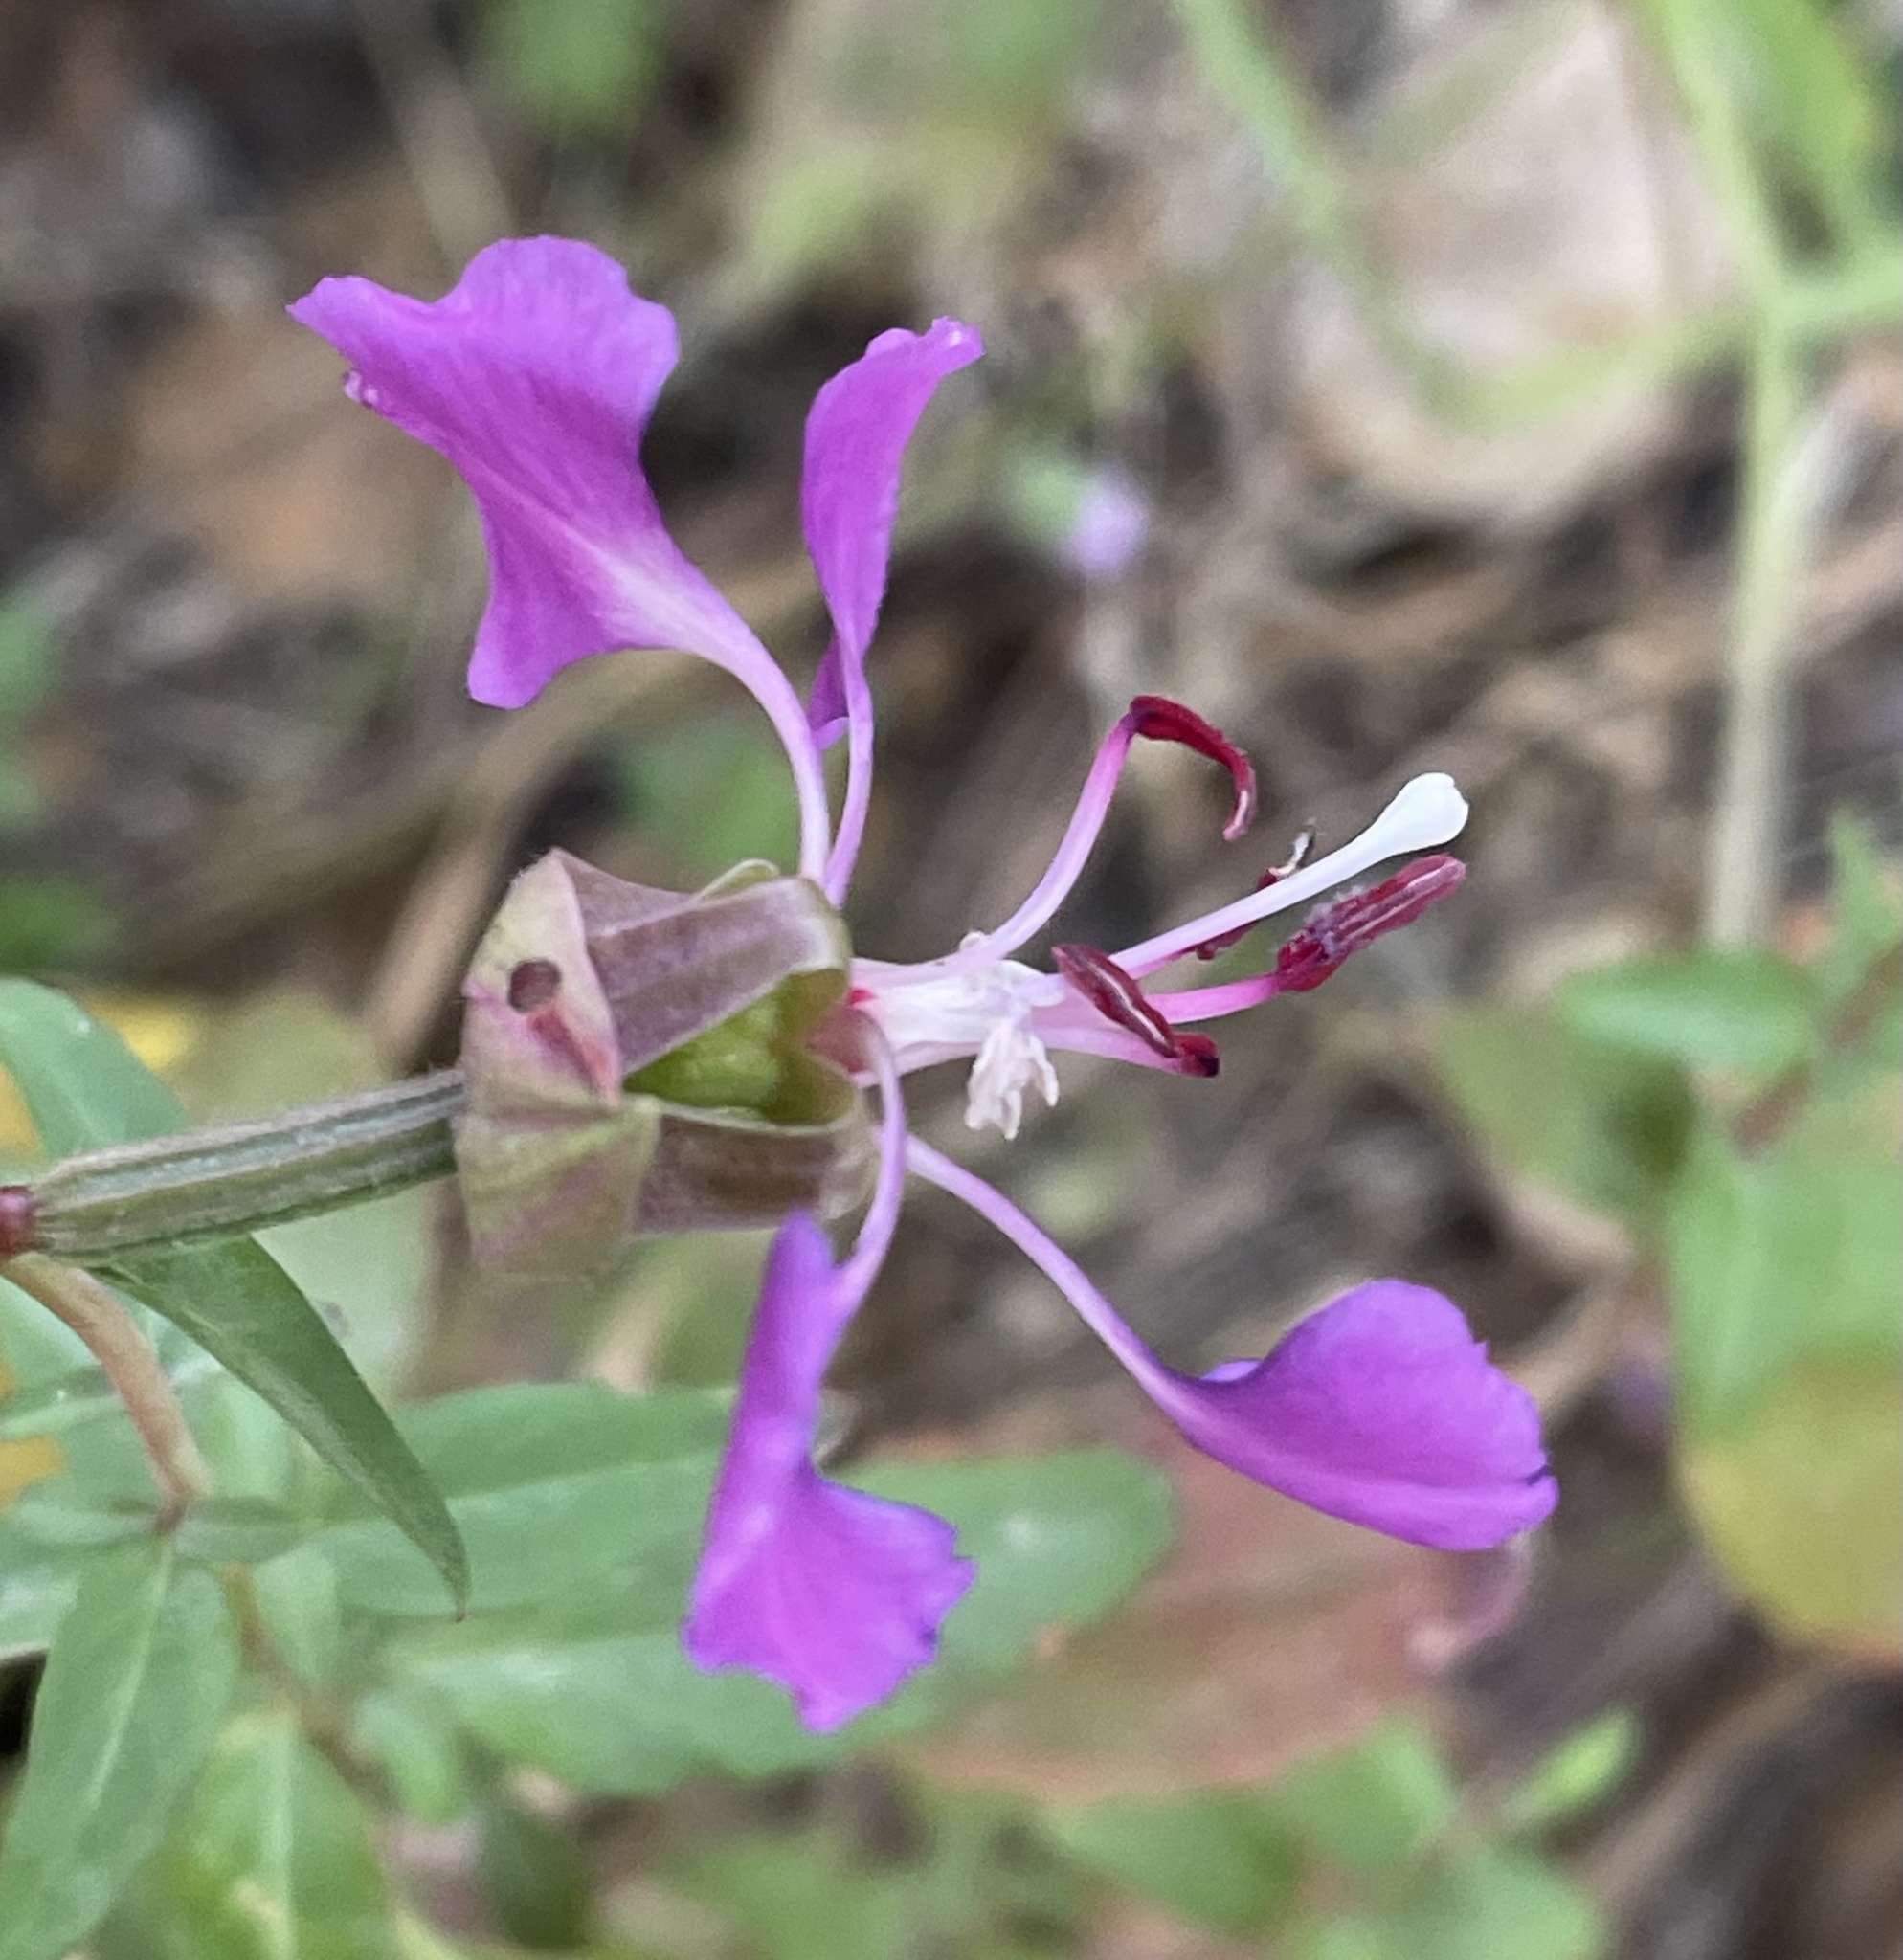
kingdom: Plantae
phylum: Tracheophyta
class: Magnoliopsida
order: Myrtales
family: Onagraceae
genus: Clarkia
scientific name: Clarkia unguiculata
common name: Clarkia
